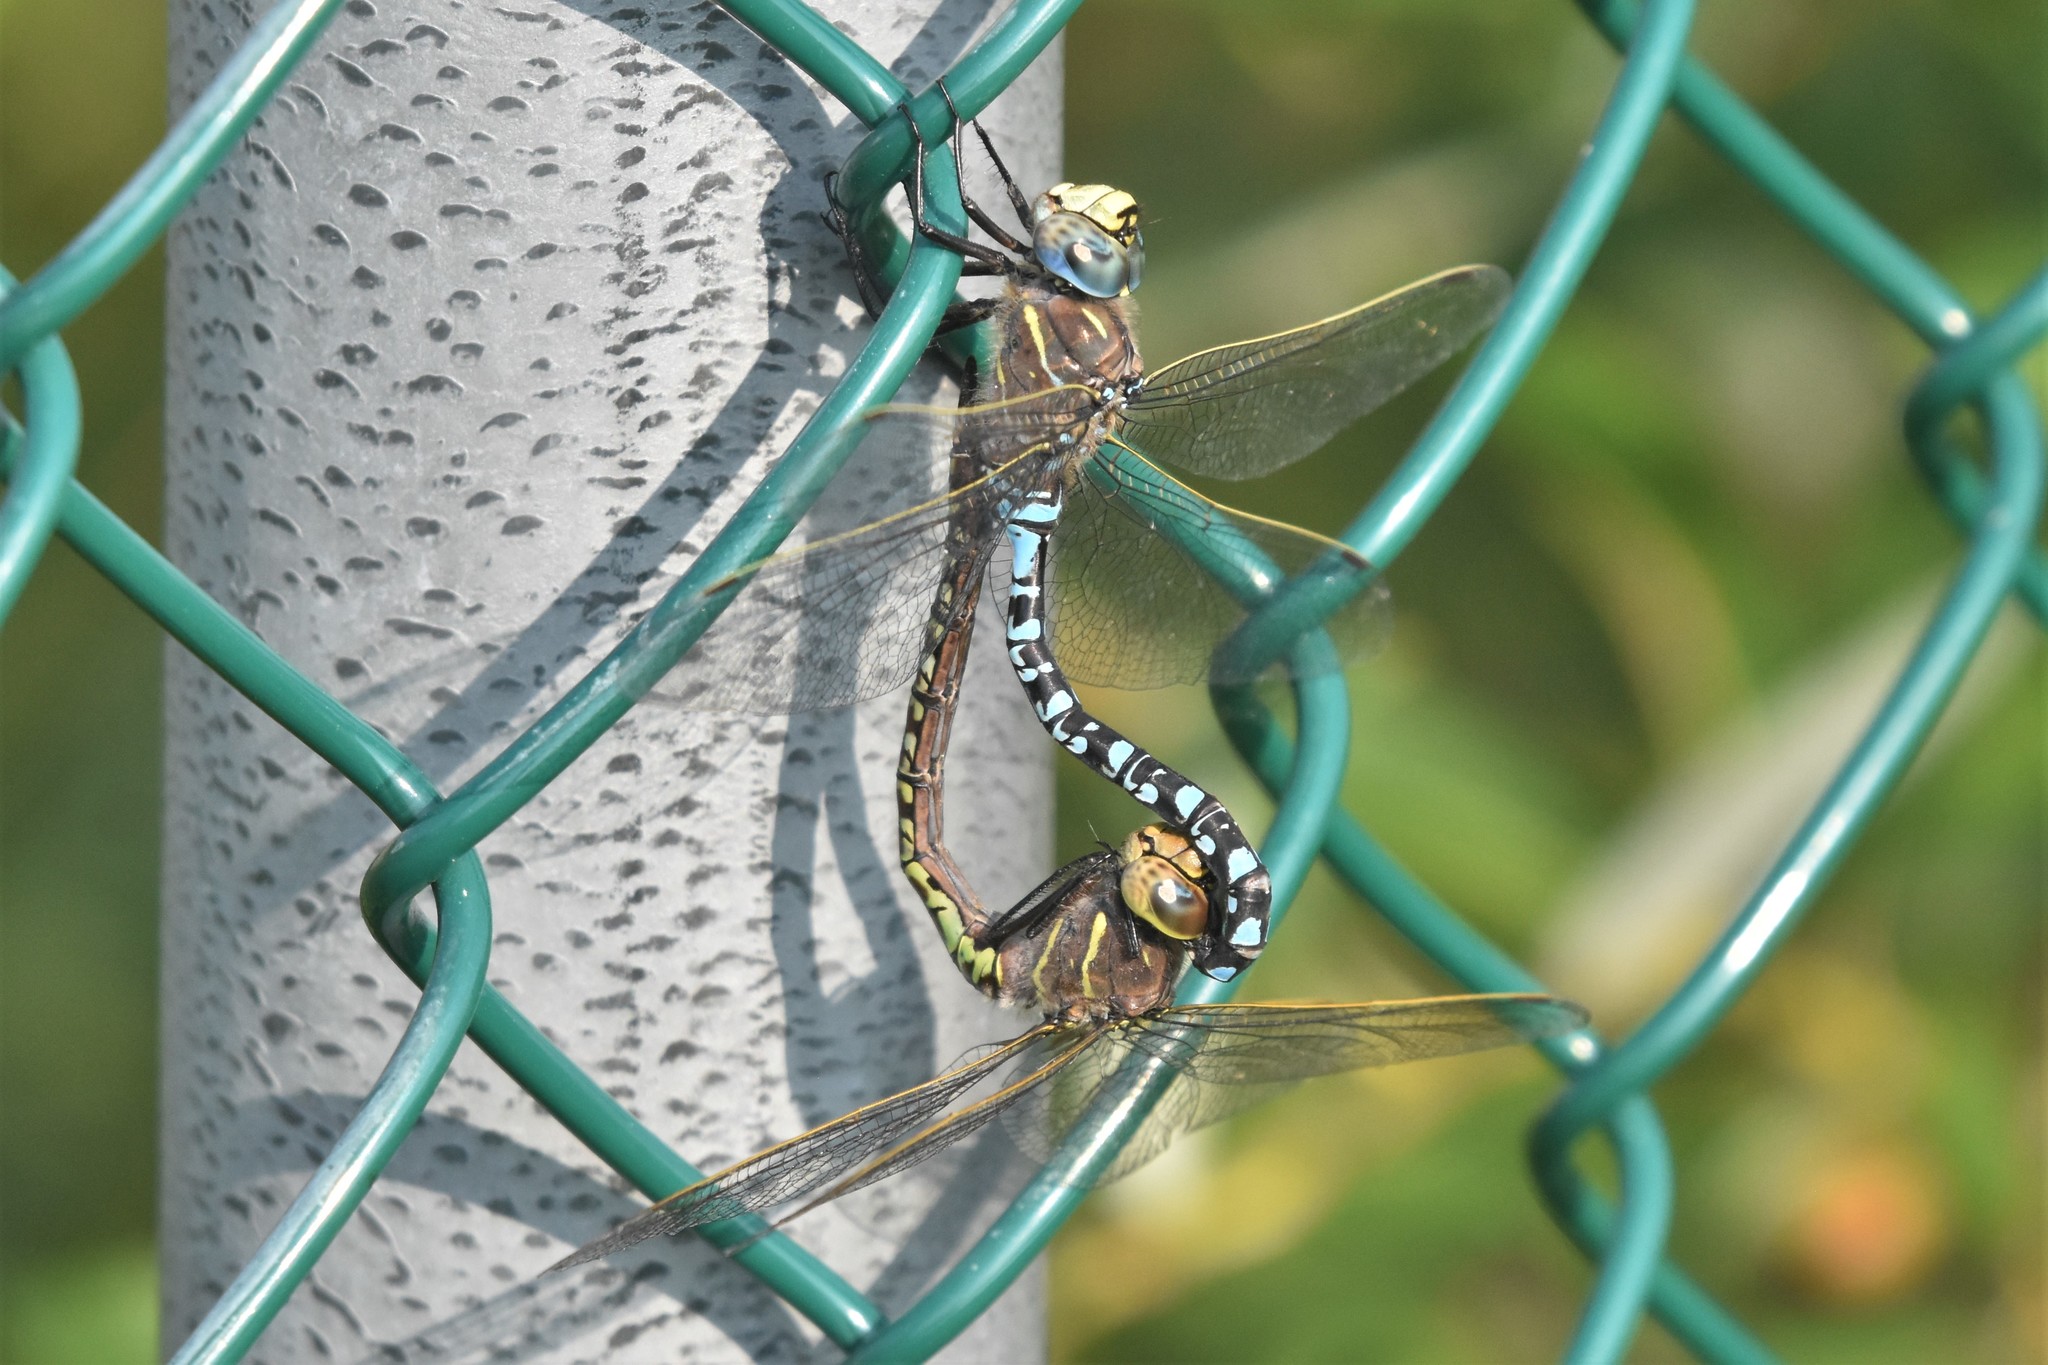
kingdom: Animalia
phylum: Arthropoda
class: Insecta
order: Odonata
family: Aeshnidae
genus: Aeshna
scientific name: Aeshna interrupta
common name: Variable darner
